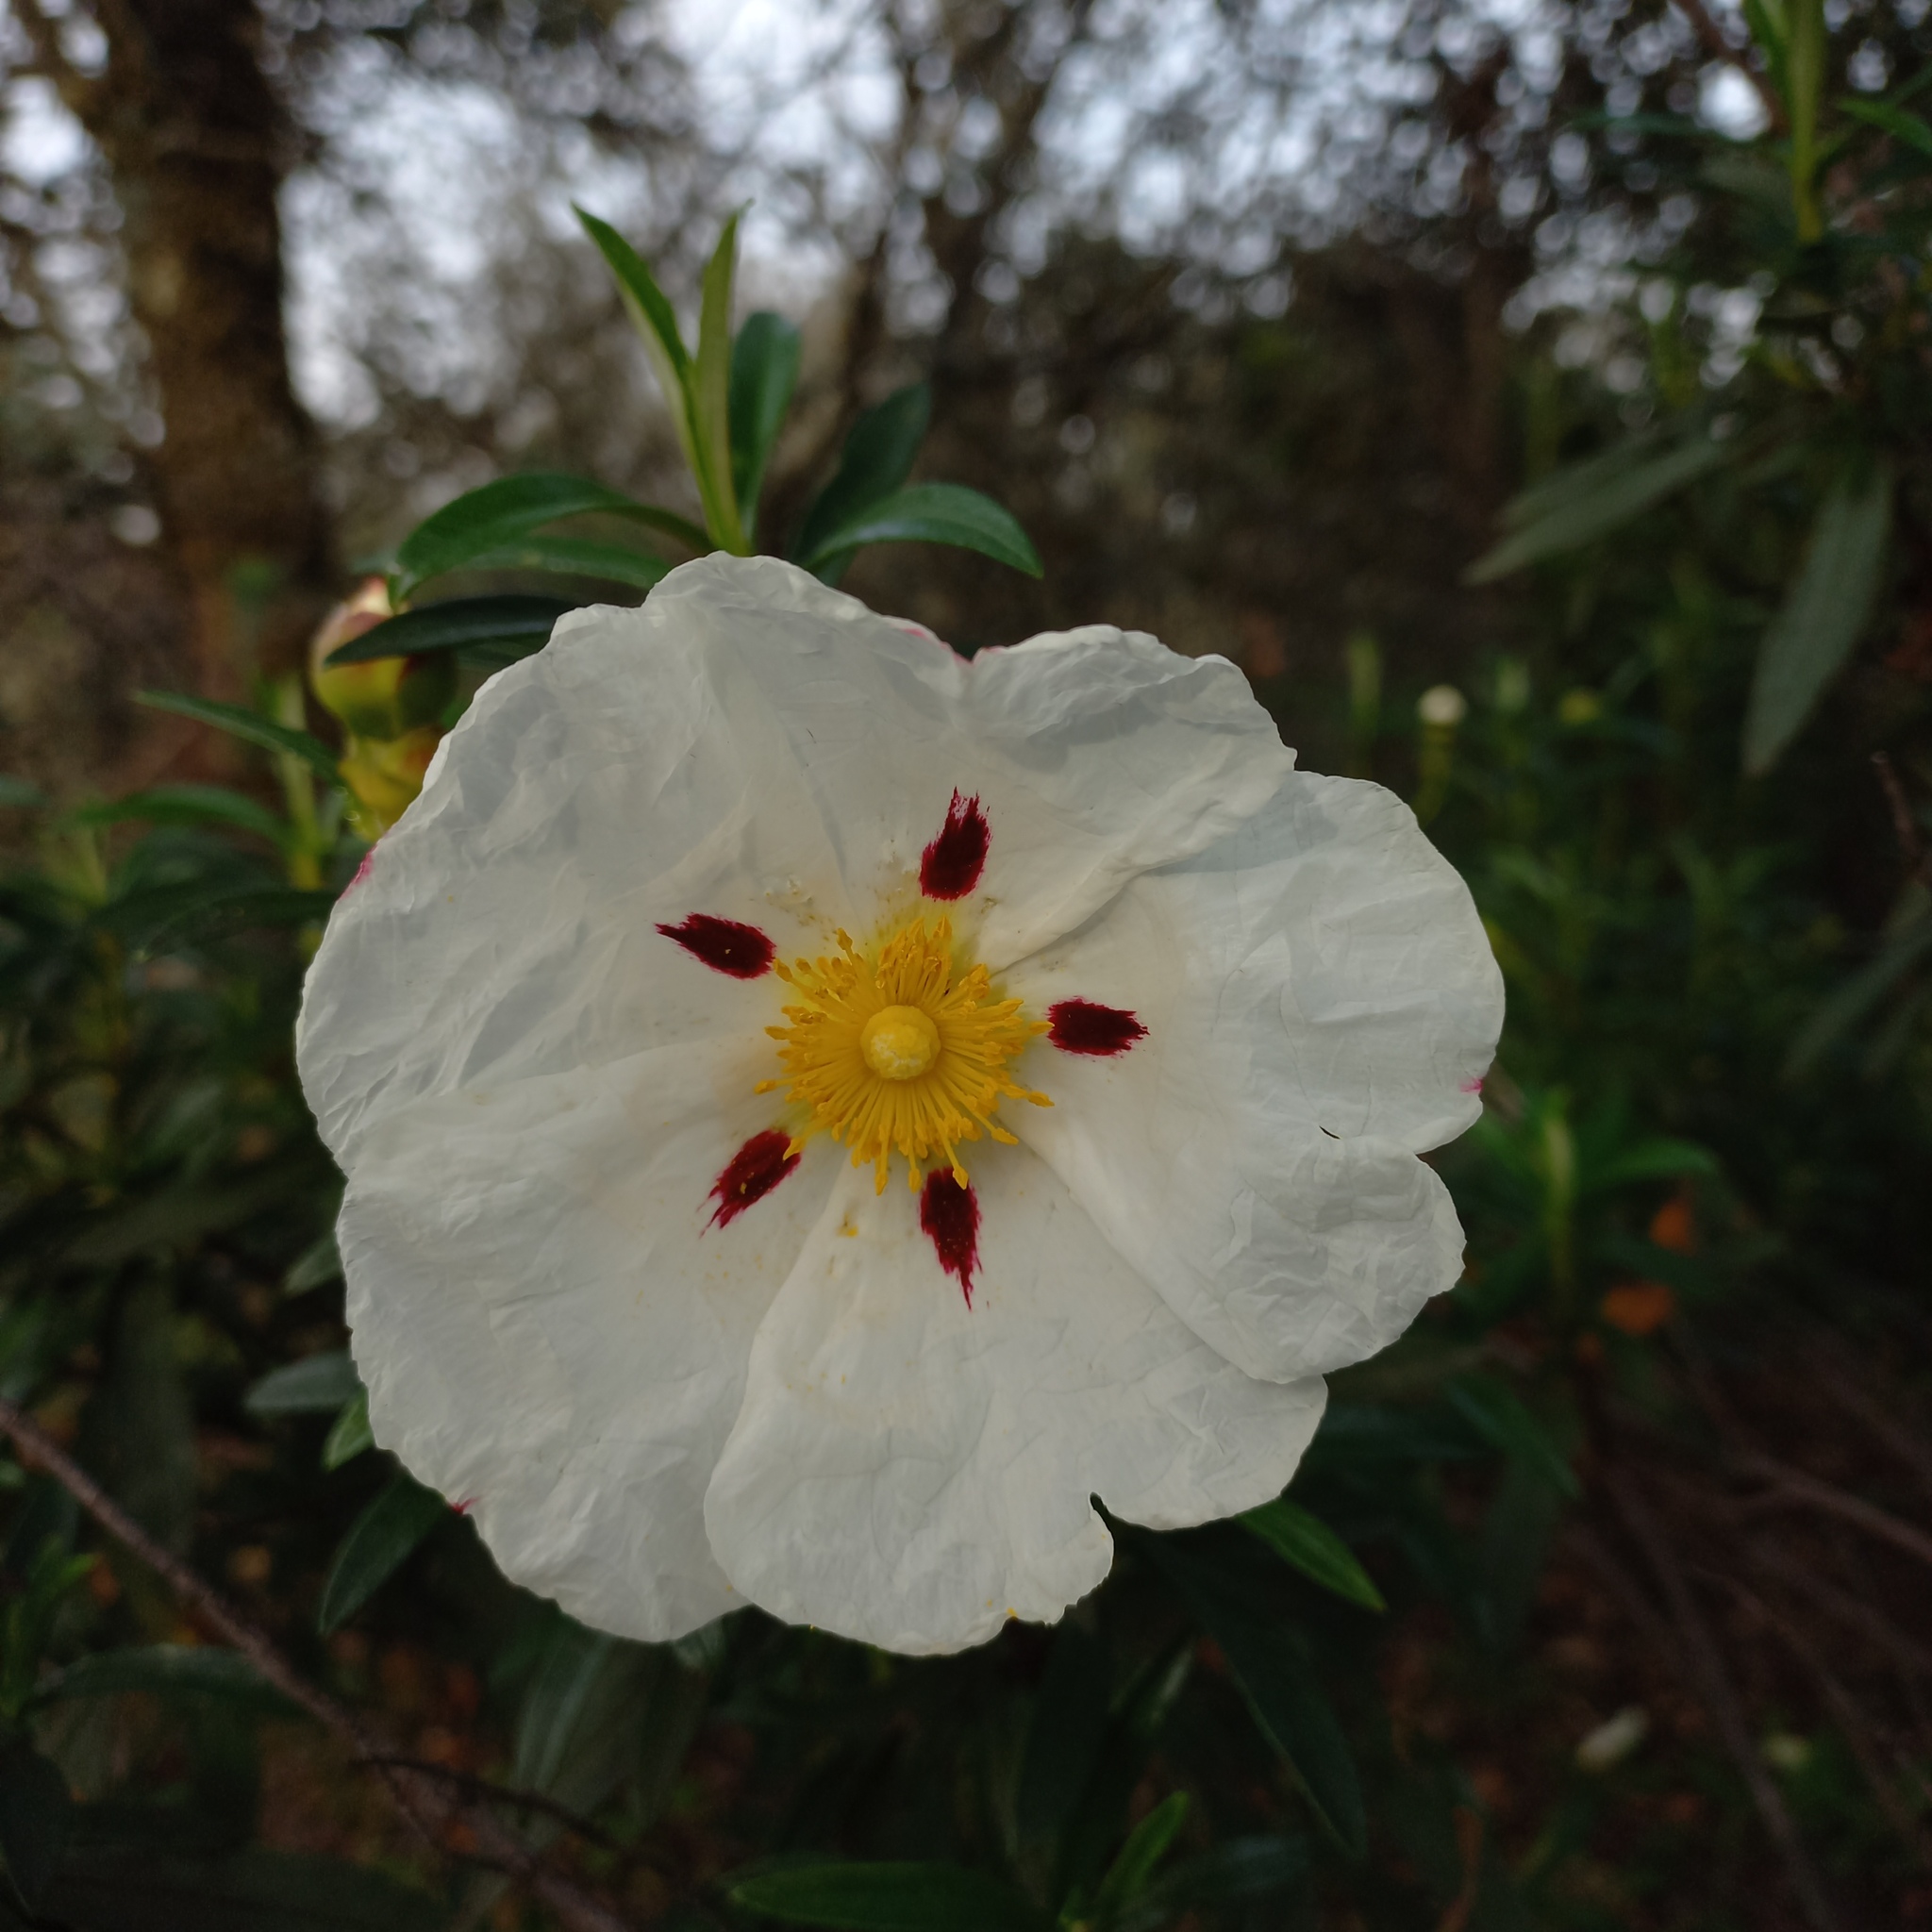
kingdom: Plantae
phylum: Tracheophyta
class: Magnoliopsida
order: Malvales
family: Cistaceae
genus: Cistus
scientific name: Cistus ladanifer
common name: Common gum cistus
